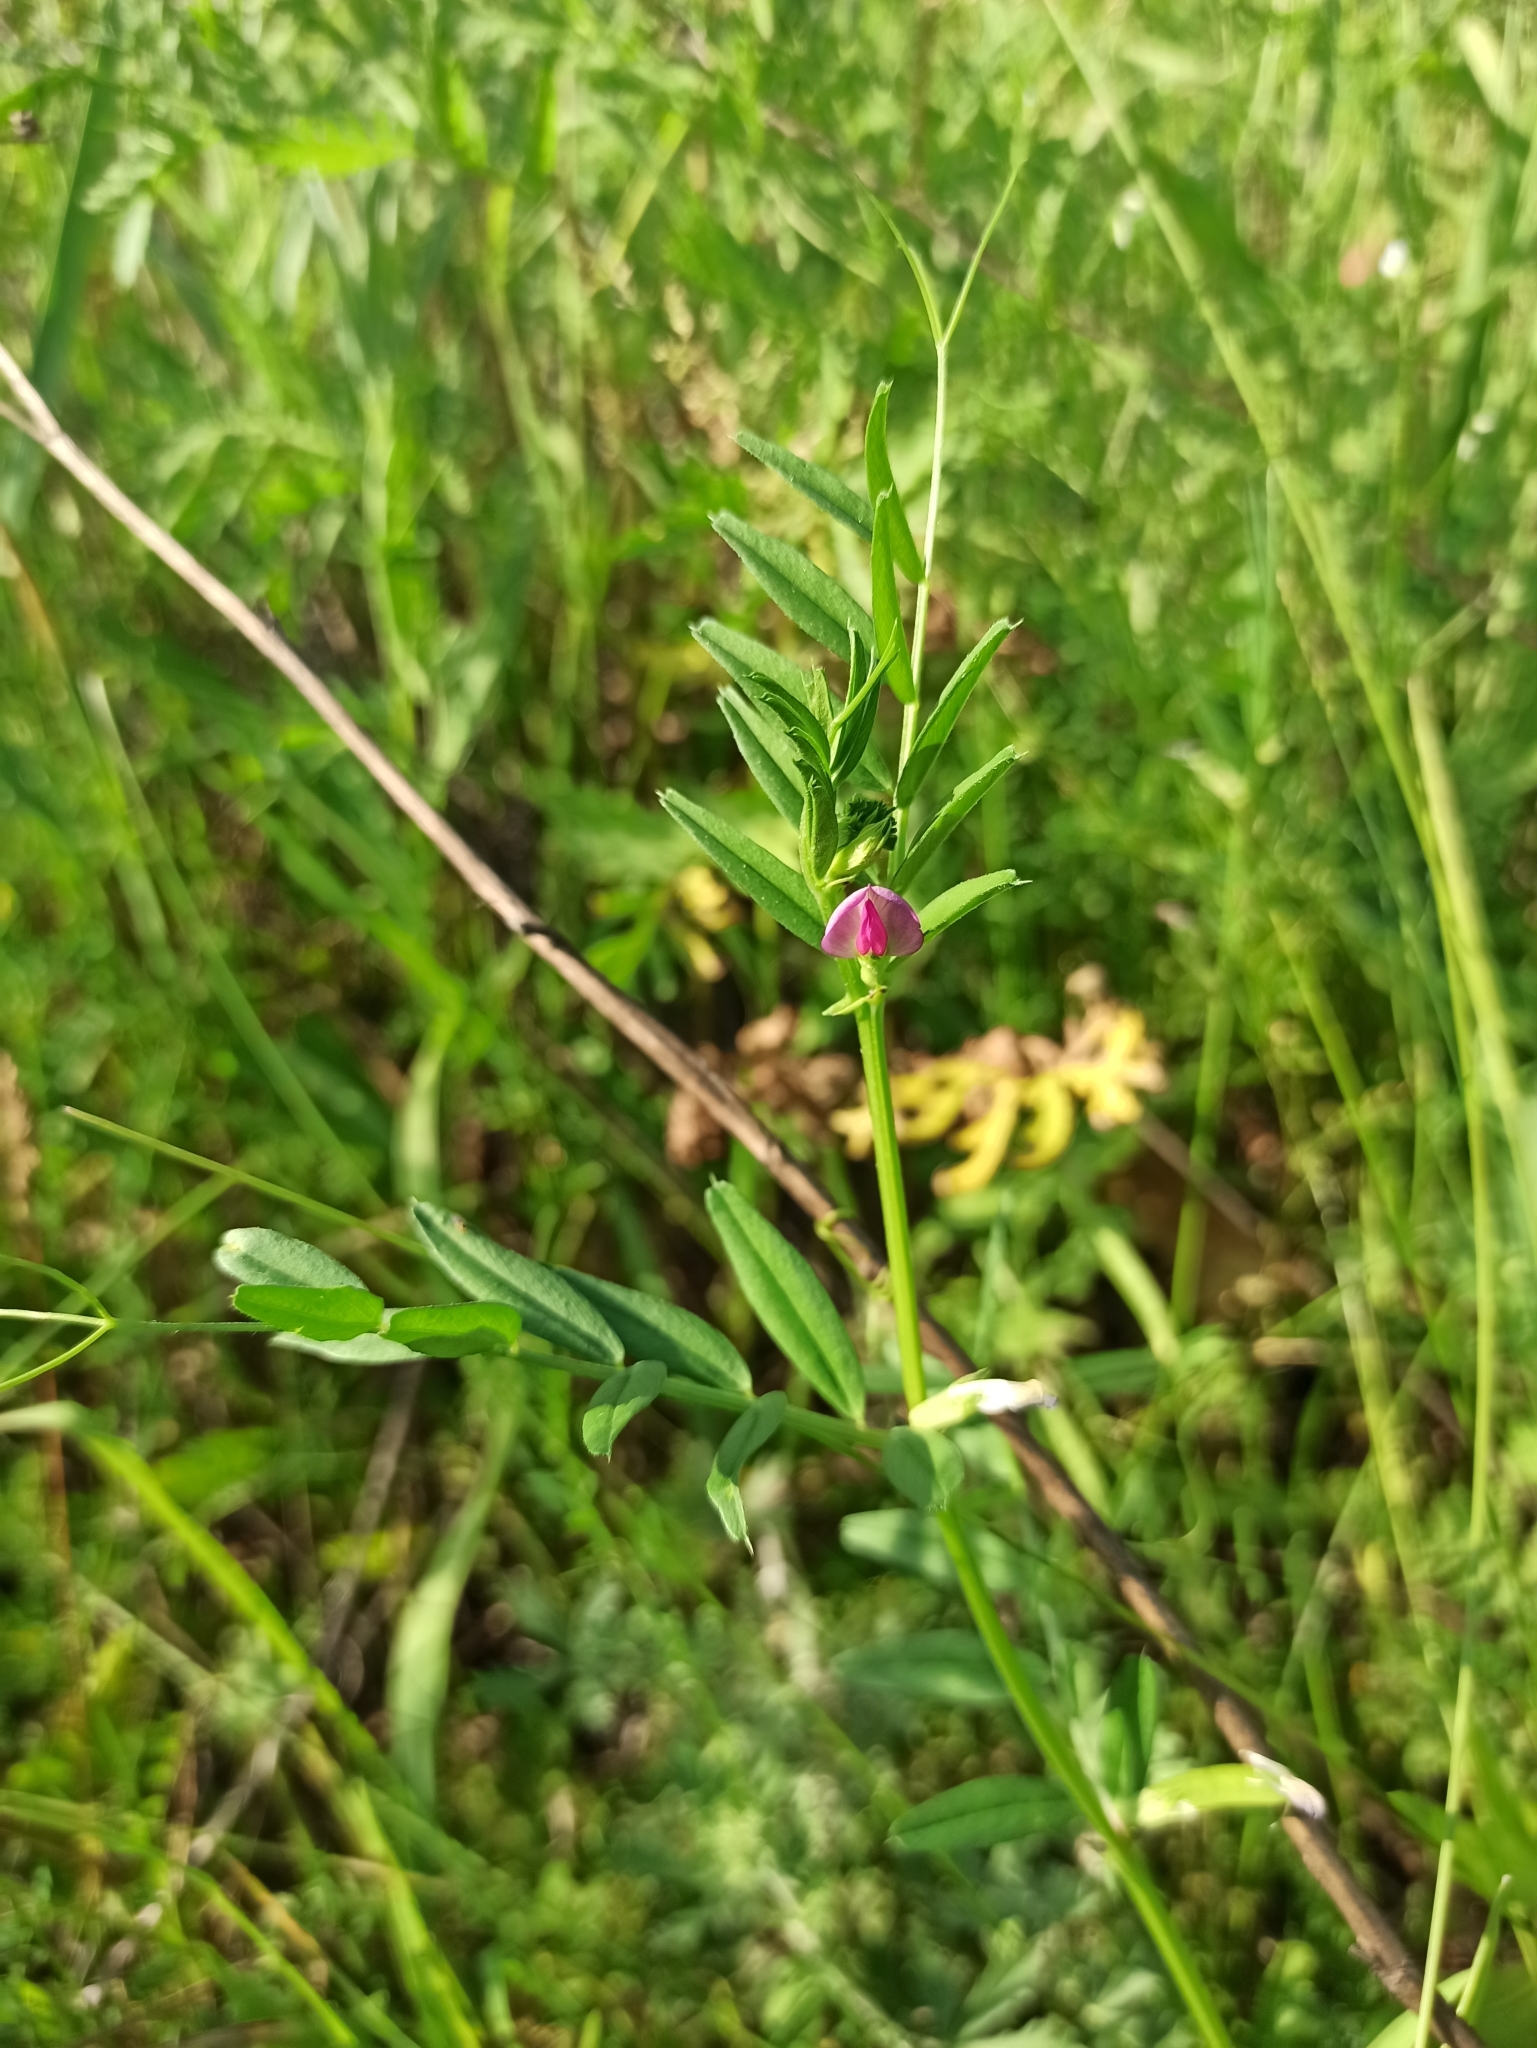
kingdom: Plantae
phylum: Tracheophyta
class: Magnoliopsida
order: Fabales
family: Fabaceae
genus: Vicia
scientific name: Vicia sativa
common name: Garden vetch
